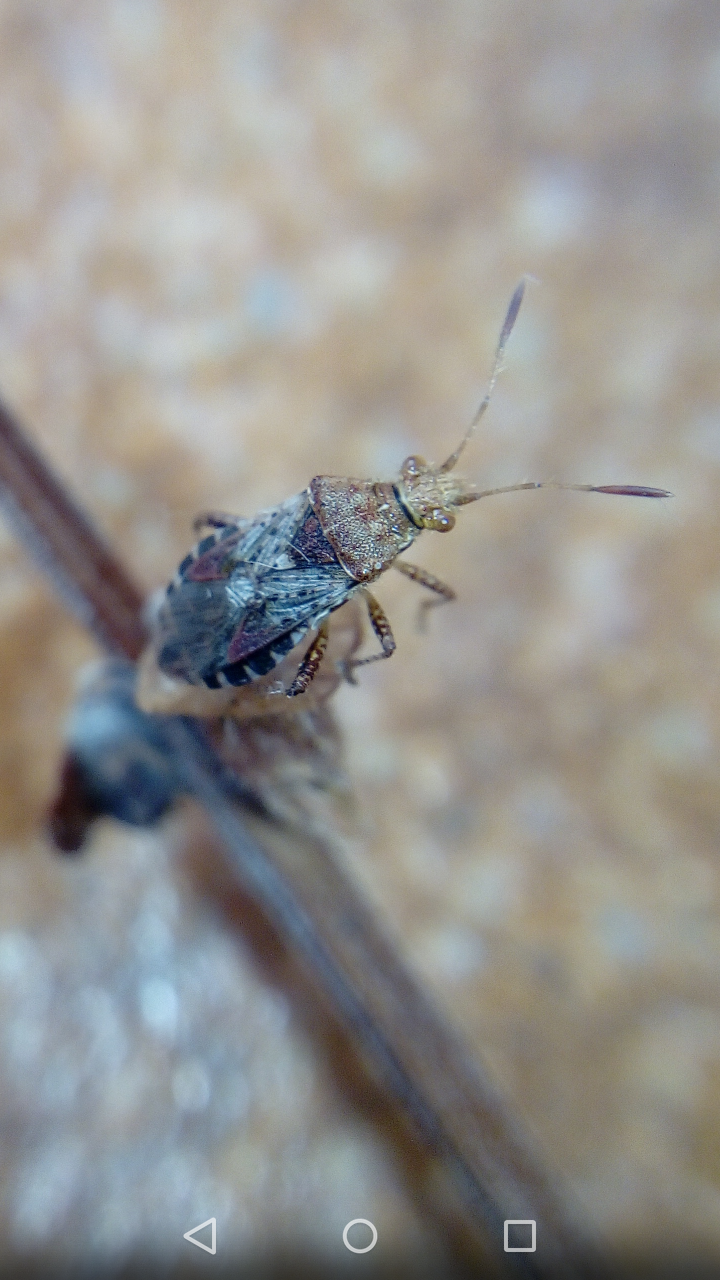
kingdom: Animalia
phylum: Arthropoda
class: Insecta
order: Hemiptera
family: Rhopalidae
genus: Rhopalus
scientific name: Rhopalus subrufus
